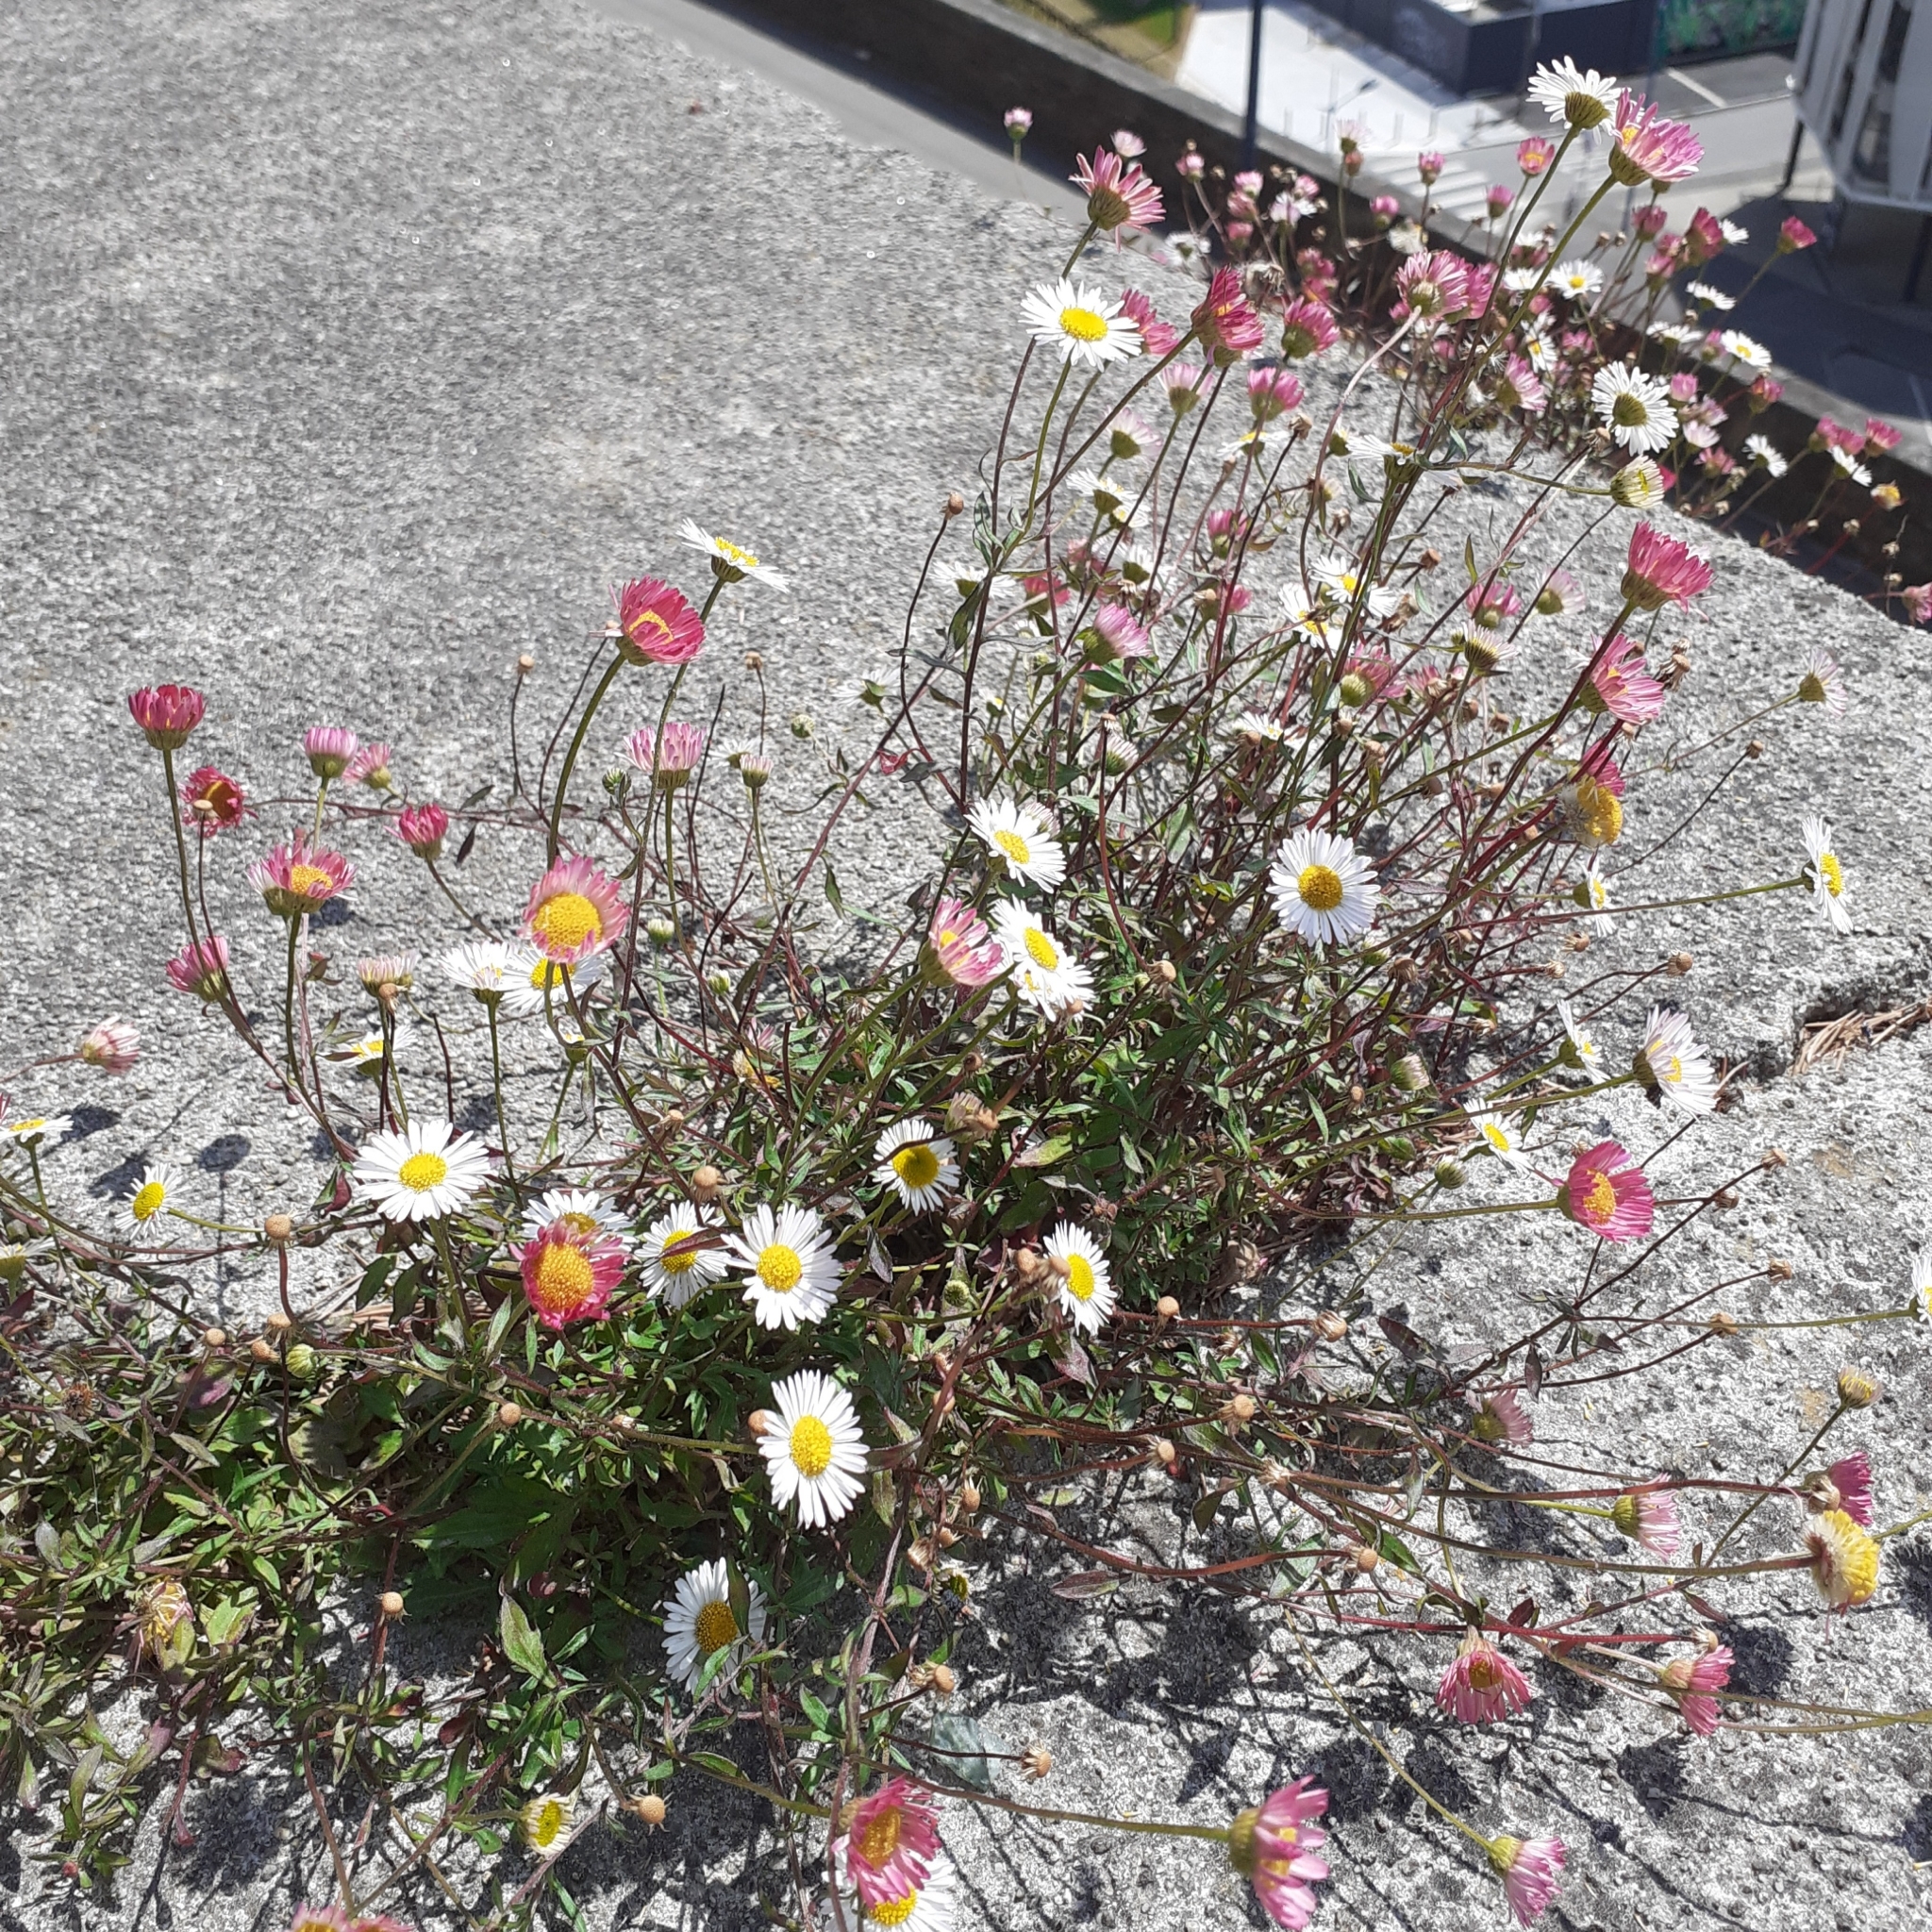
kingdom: Plantae
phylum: Tracheophyta
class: Magnoliopsida
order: Asterales
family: Asteraceae
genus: Erigeron
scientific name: Erigeron karvinskianus
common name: Mexican fleabane
